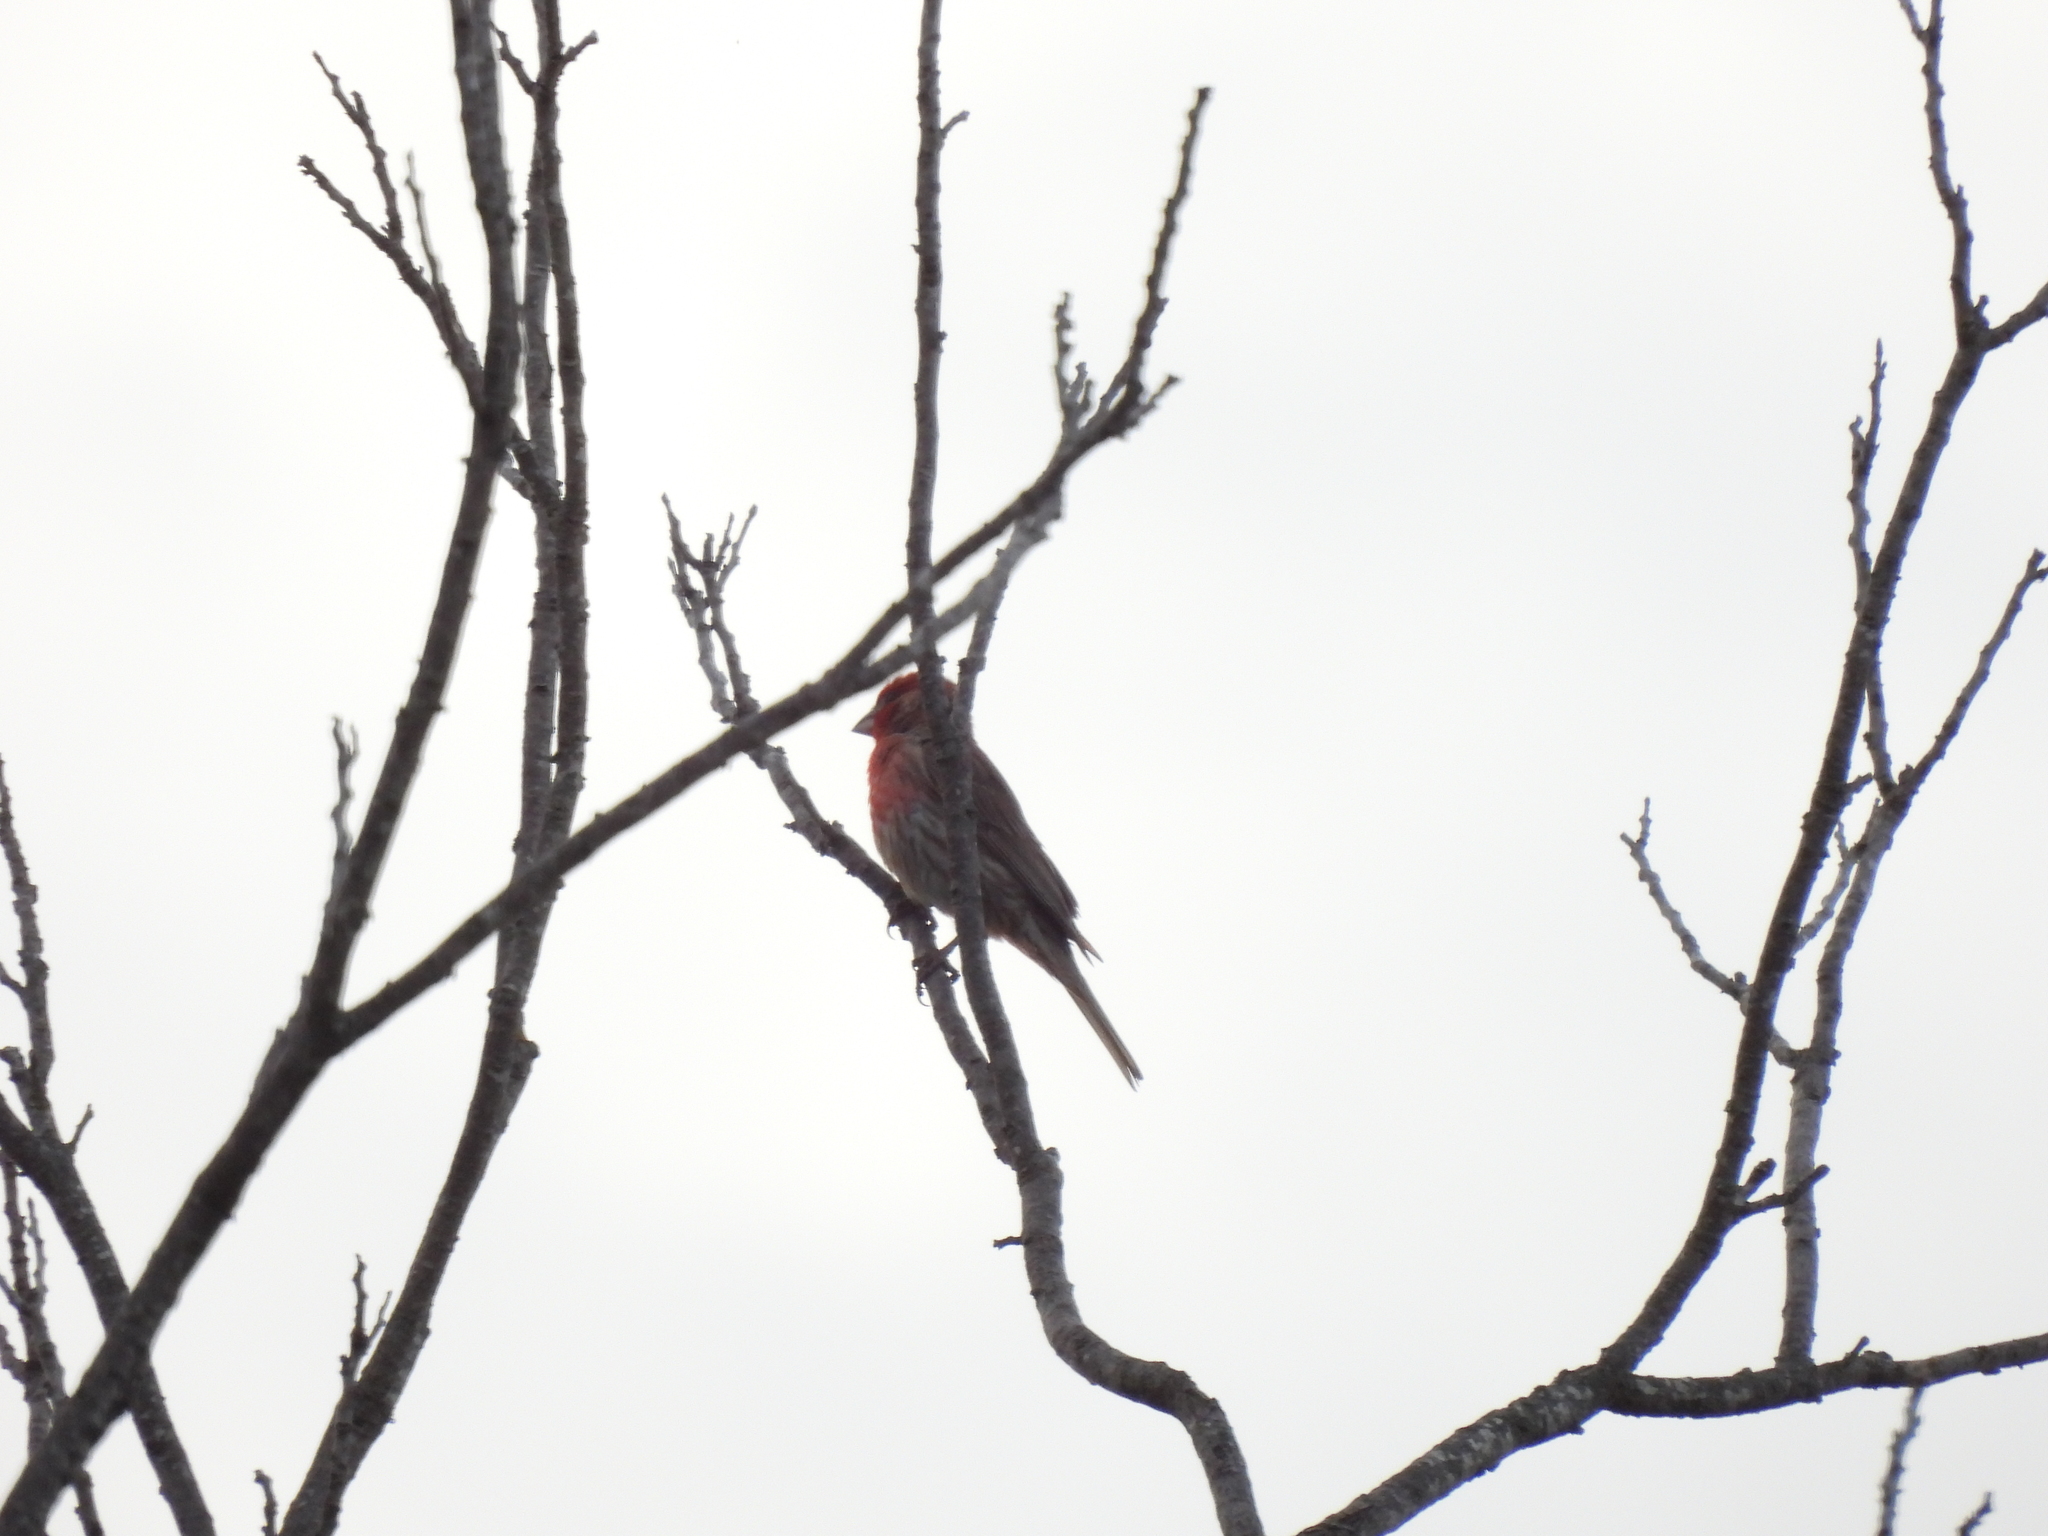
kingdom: Animalia
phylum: Chordata
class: Aves
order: Passeriformes
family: Fringillidae
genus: Haemorhous
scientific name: Haemorhous mexicanus
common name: House finch
